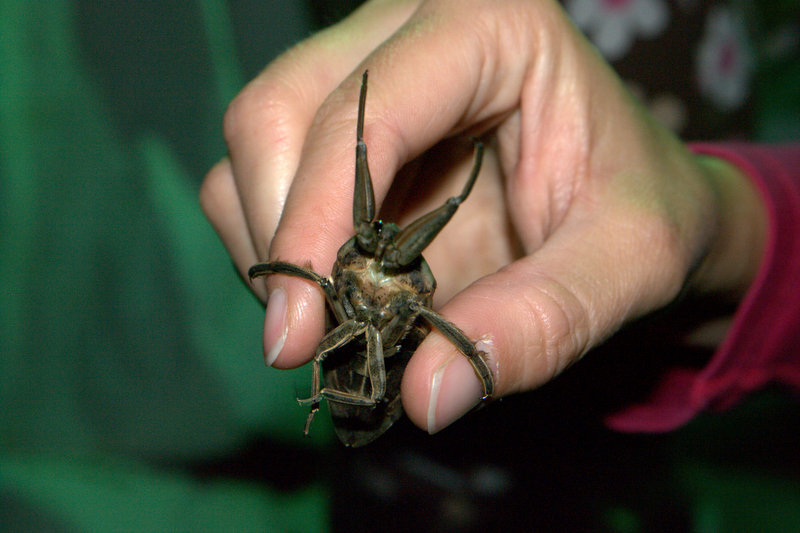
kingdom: Animalia
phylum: Arthropoda
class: Insecta
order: Hemiptera
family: Belostomatidae
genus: Lethocerus
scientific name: Lethocerus americanus
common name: Giant water bug
